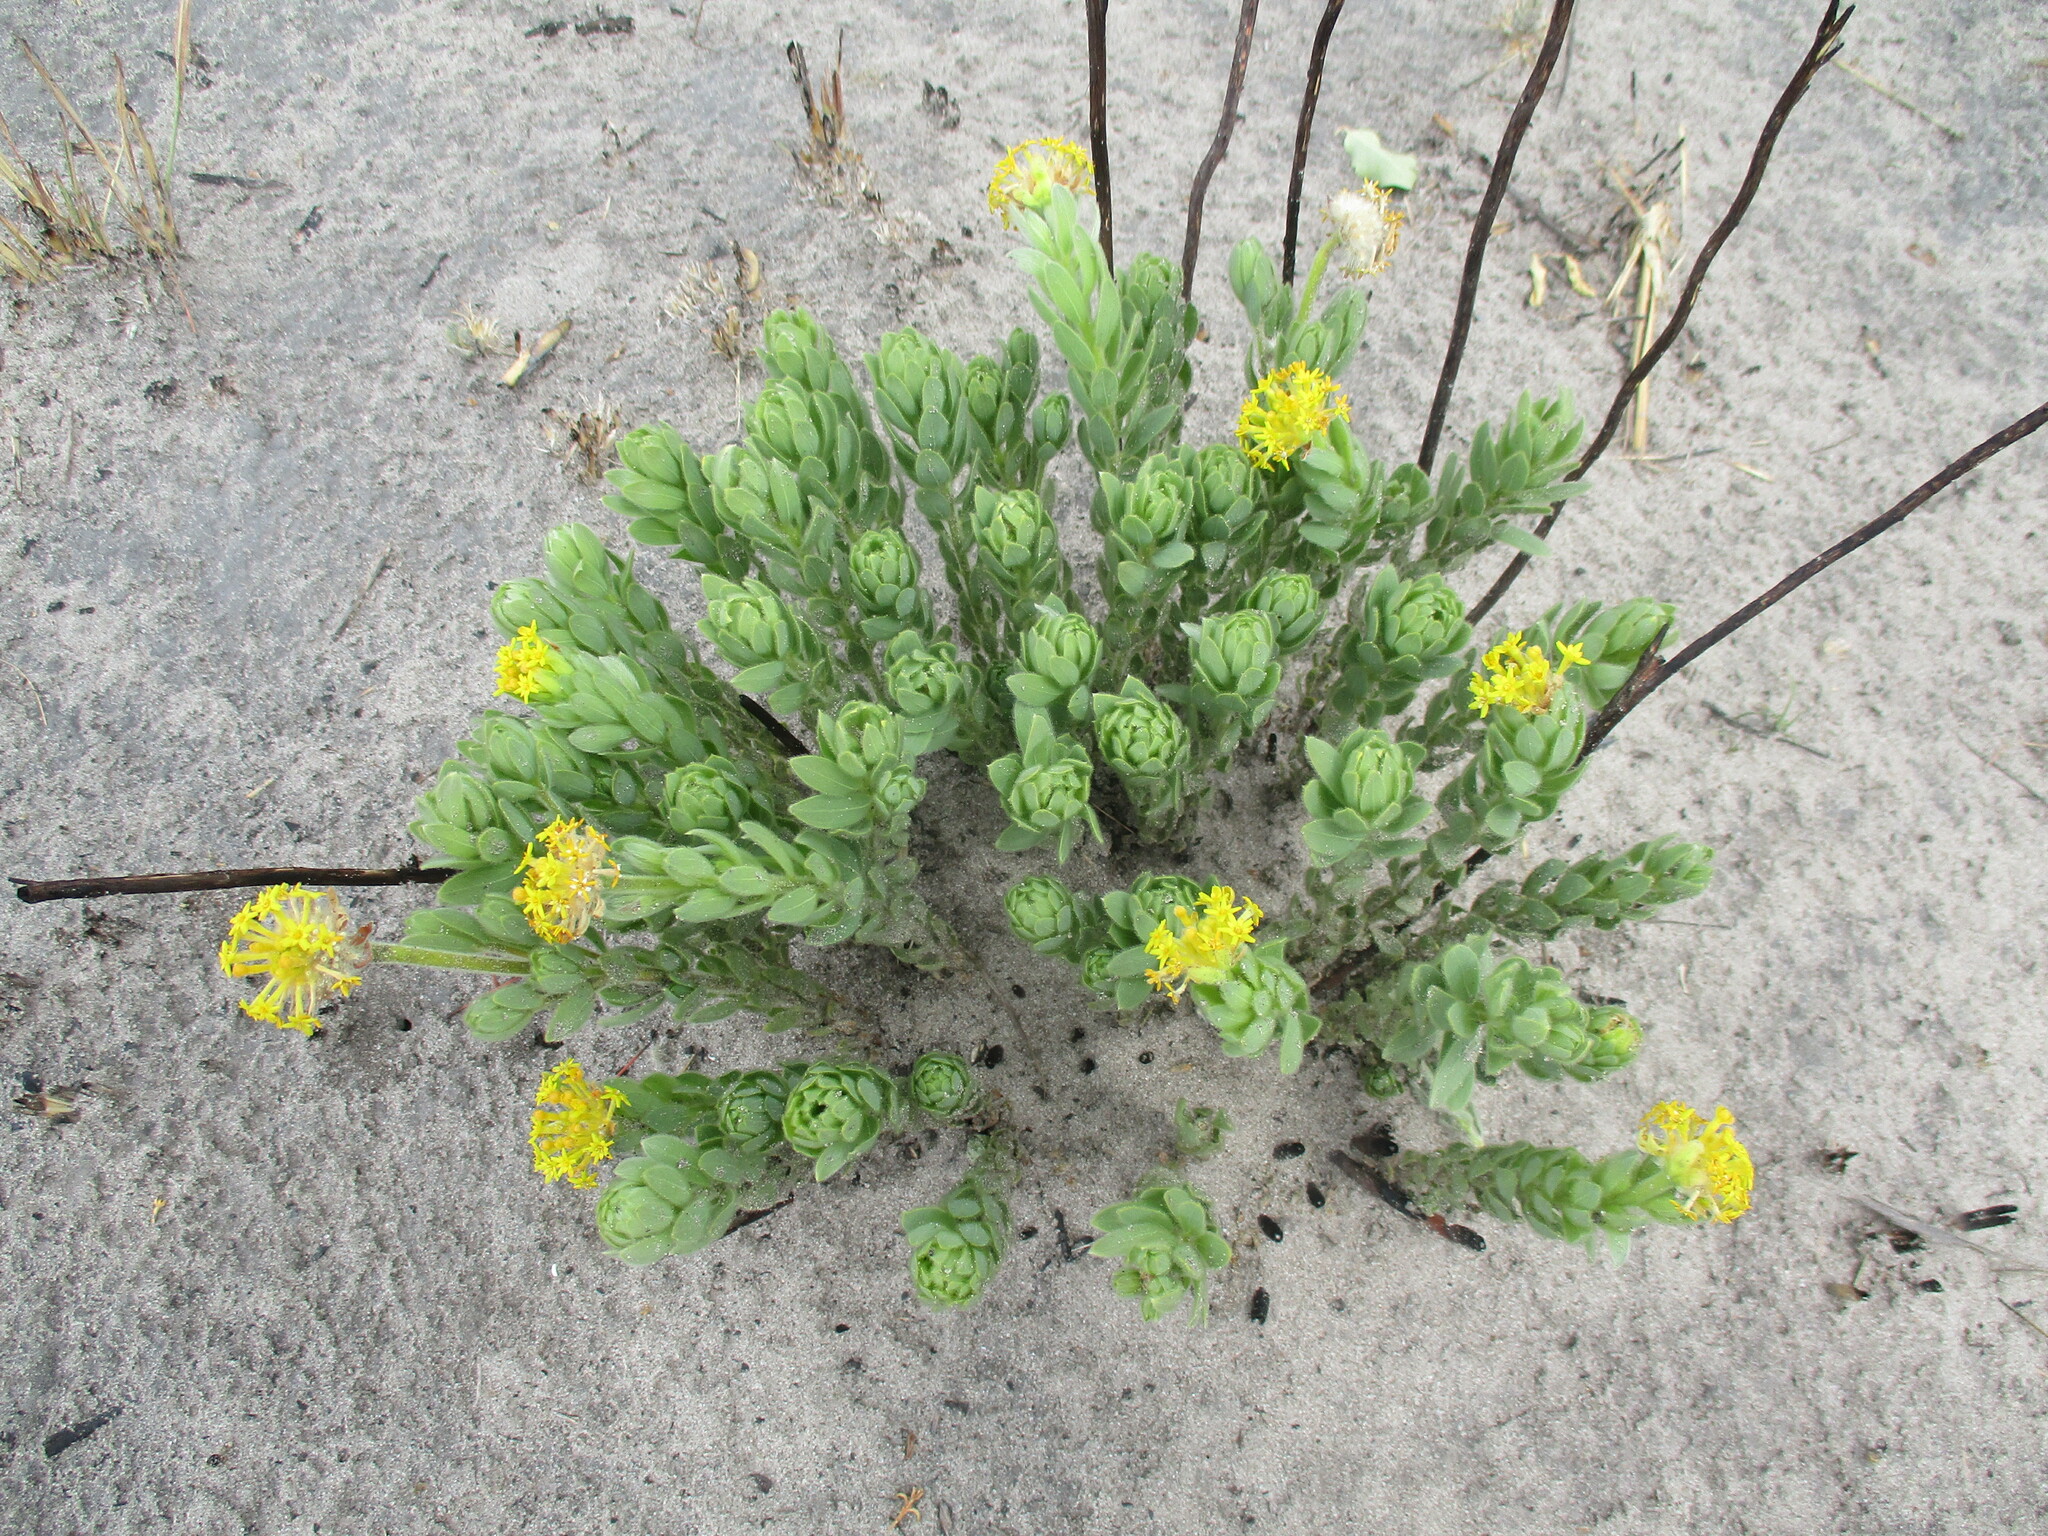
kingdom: Plantae
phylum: Tracheophyta
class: Magnoliopsida
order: Malvales
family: Thymelaeaceae
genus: Gnidia
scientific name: Gnidia kraussiana
